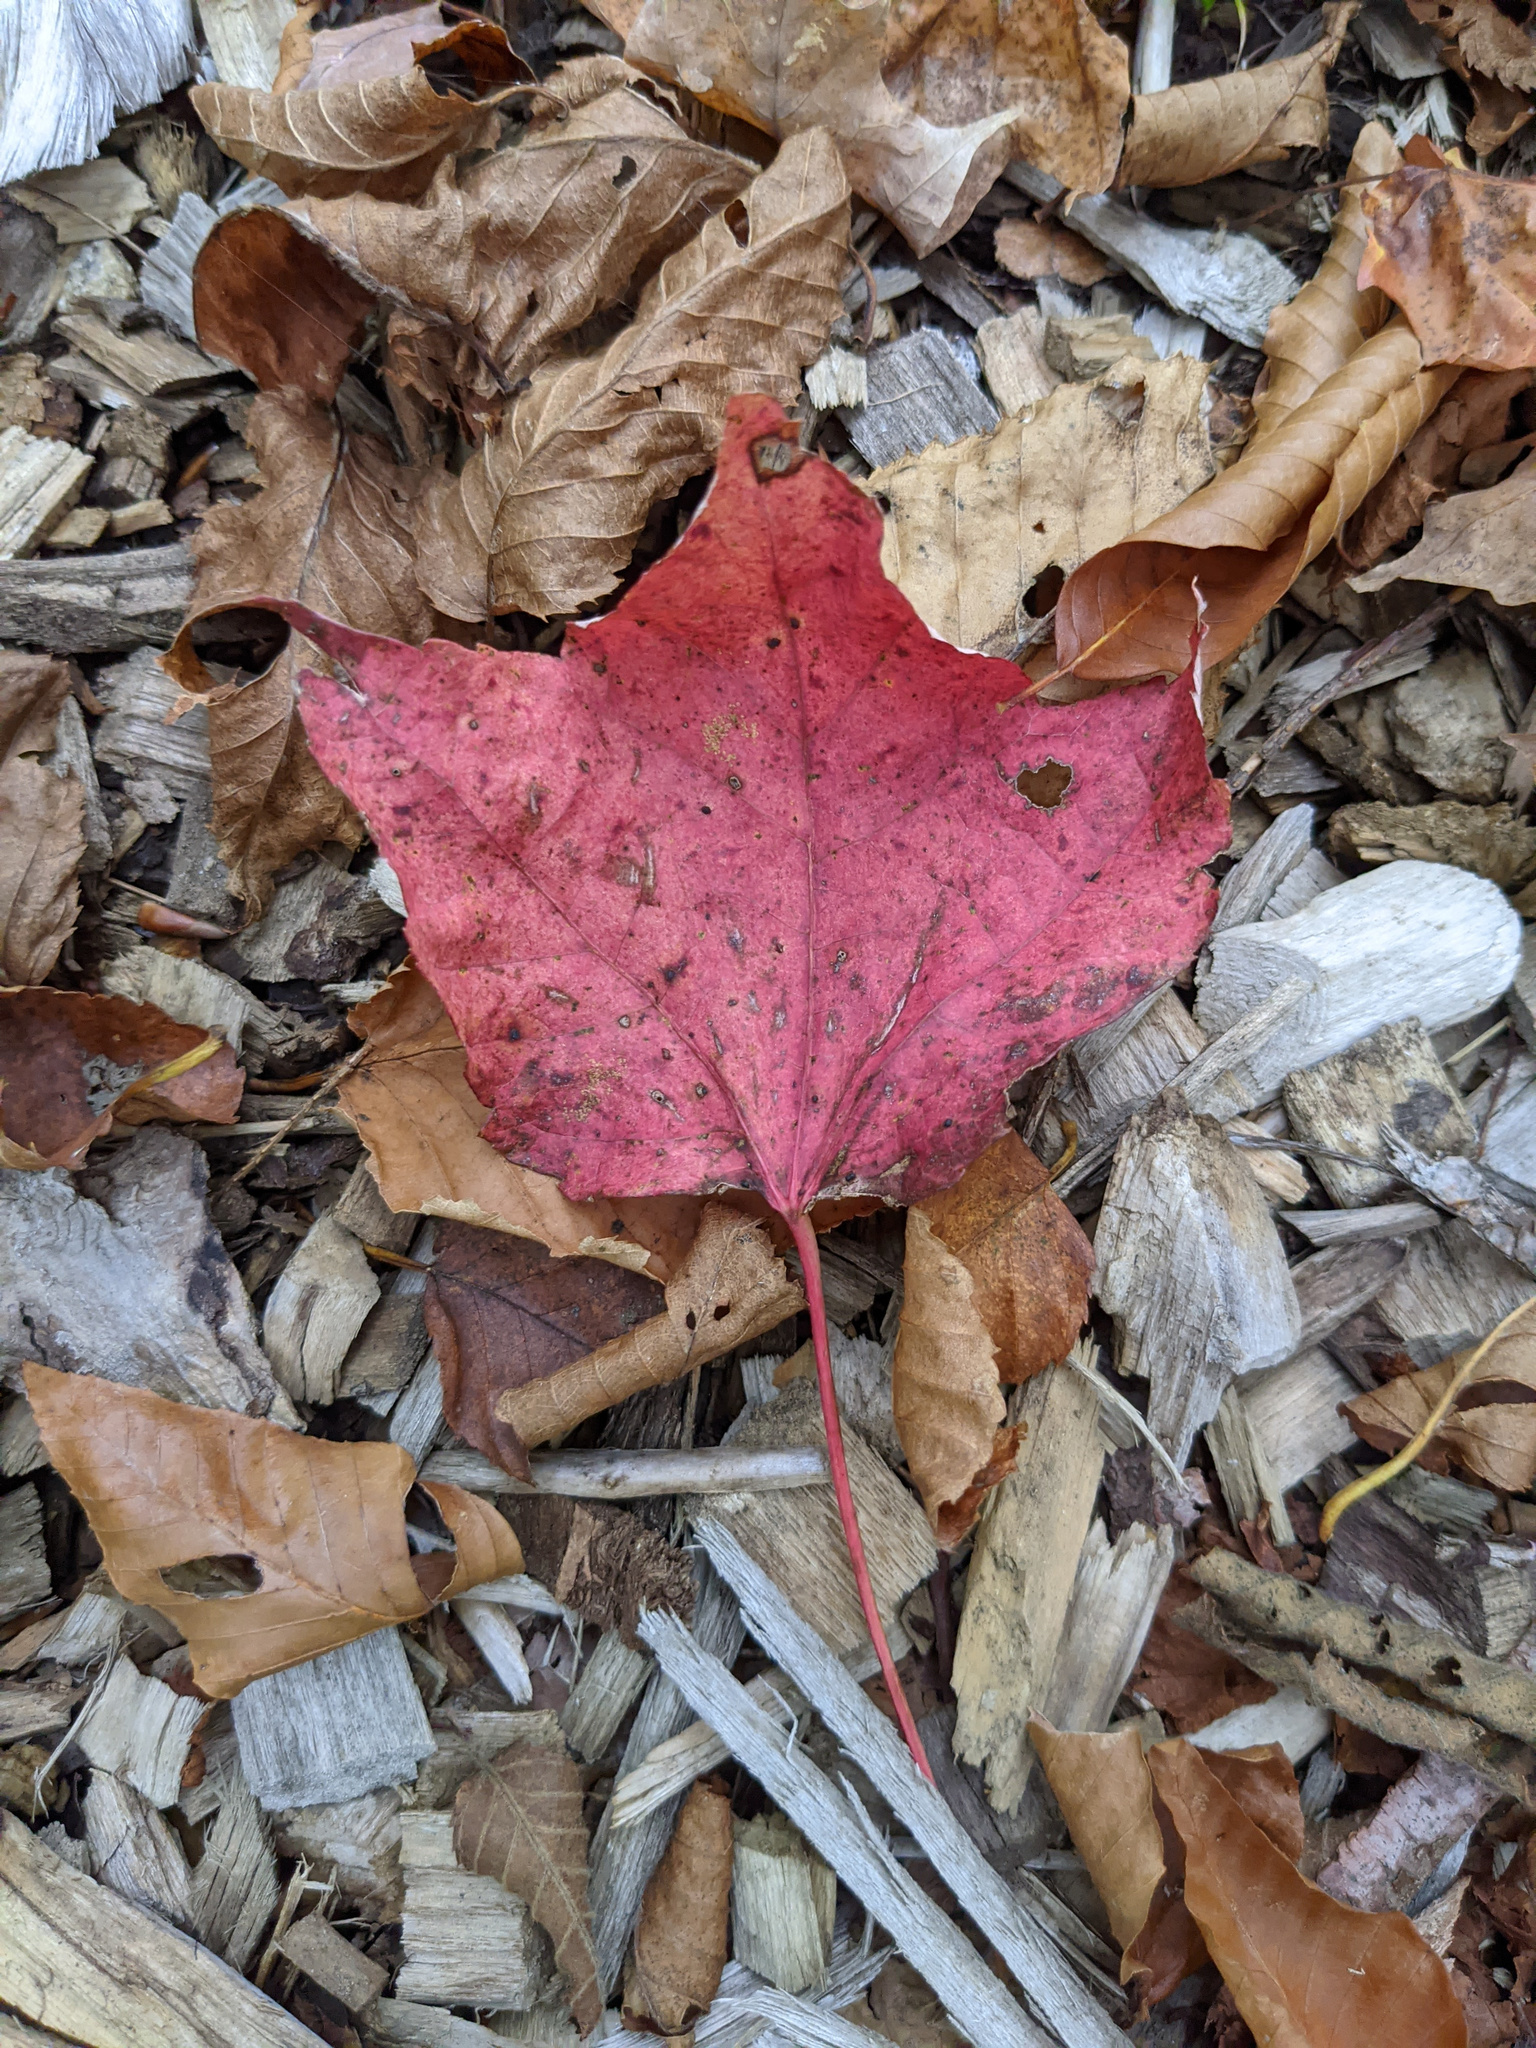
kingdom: Plantae
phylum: Tracheophyta
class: Magnoliopsida
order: Sapindales
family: Sapindaceae
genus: Acer
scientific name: Acer rubrum
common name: Red maple
